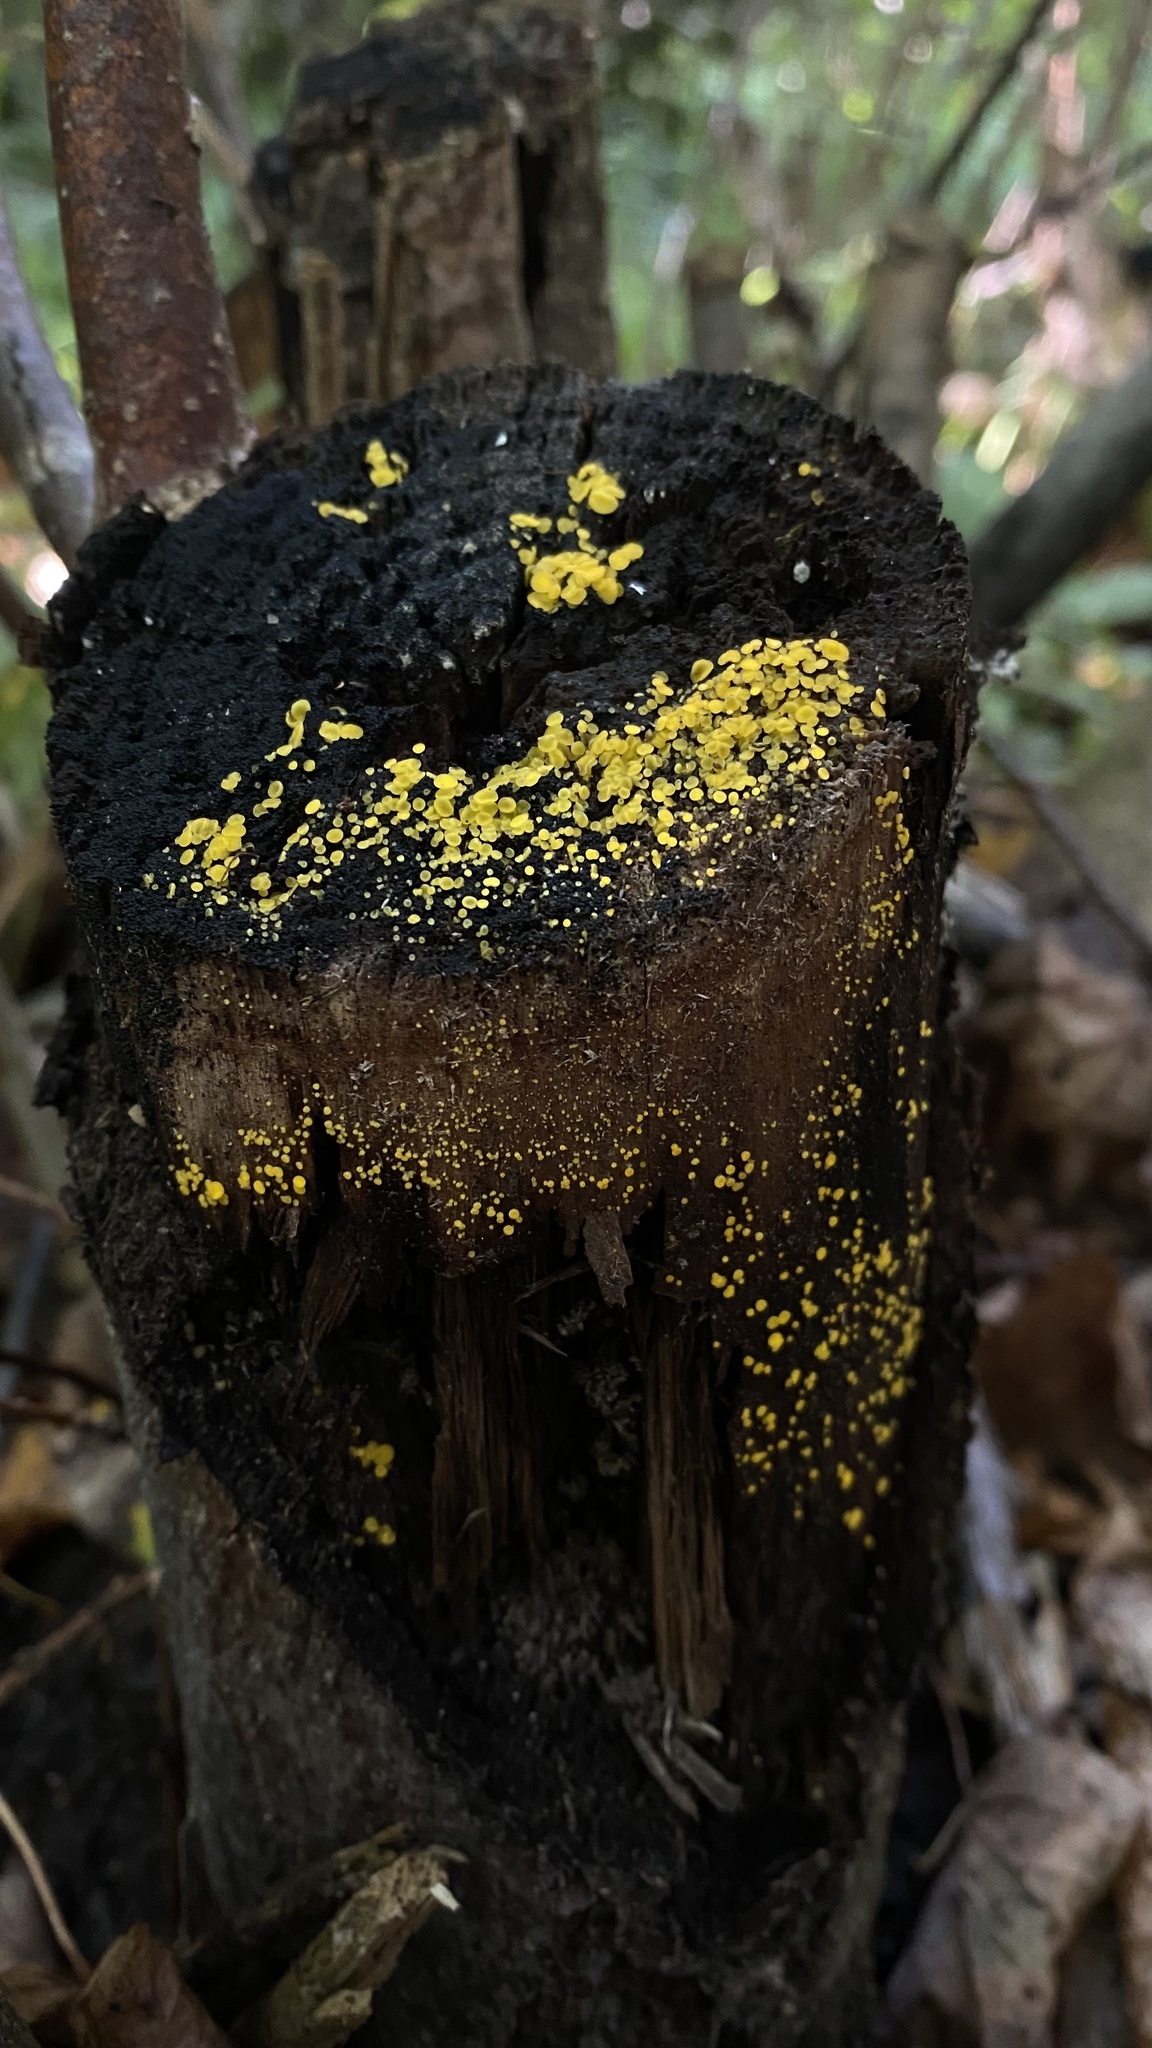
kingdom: Fungi
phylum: Ascomycota
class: Leotiomycetes
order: Helotiales
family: Pezizellaceae
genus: Calycina
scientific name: Calycina citrina
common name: Yellow fairy cups
